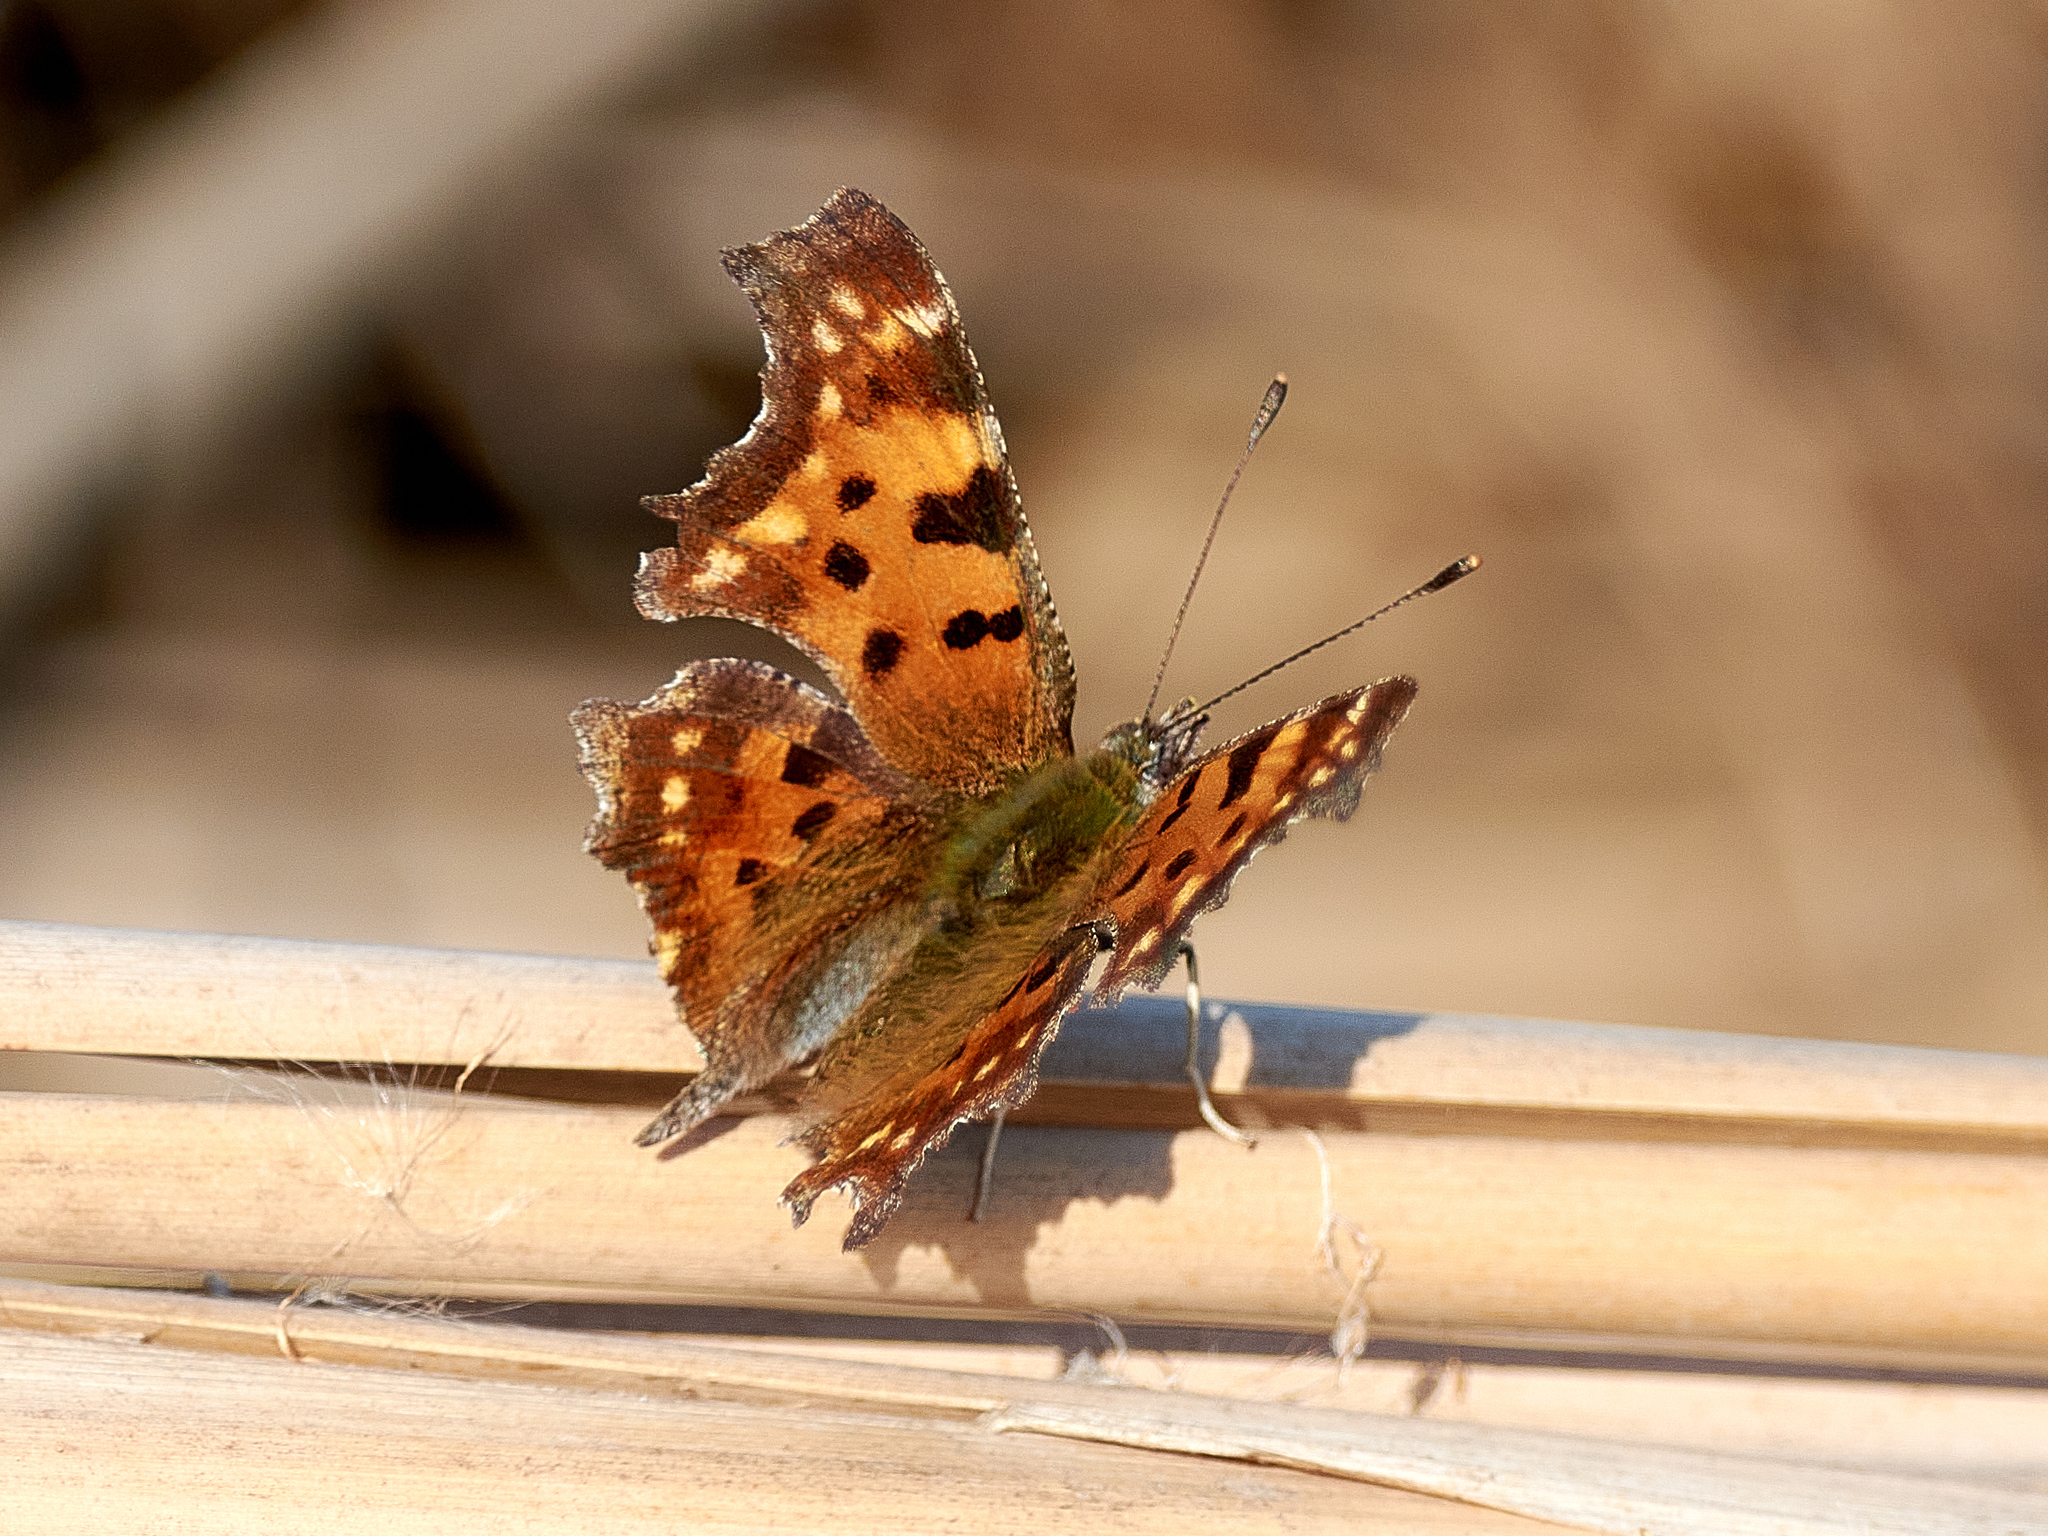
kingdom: Animalia
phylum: Arthropoda
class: Insecta
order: Lepidoptera
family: Nymphalidae
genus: Polygonia
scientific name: Polygonia c-album
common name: Comma
